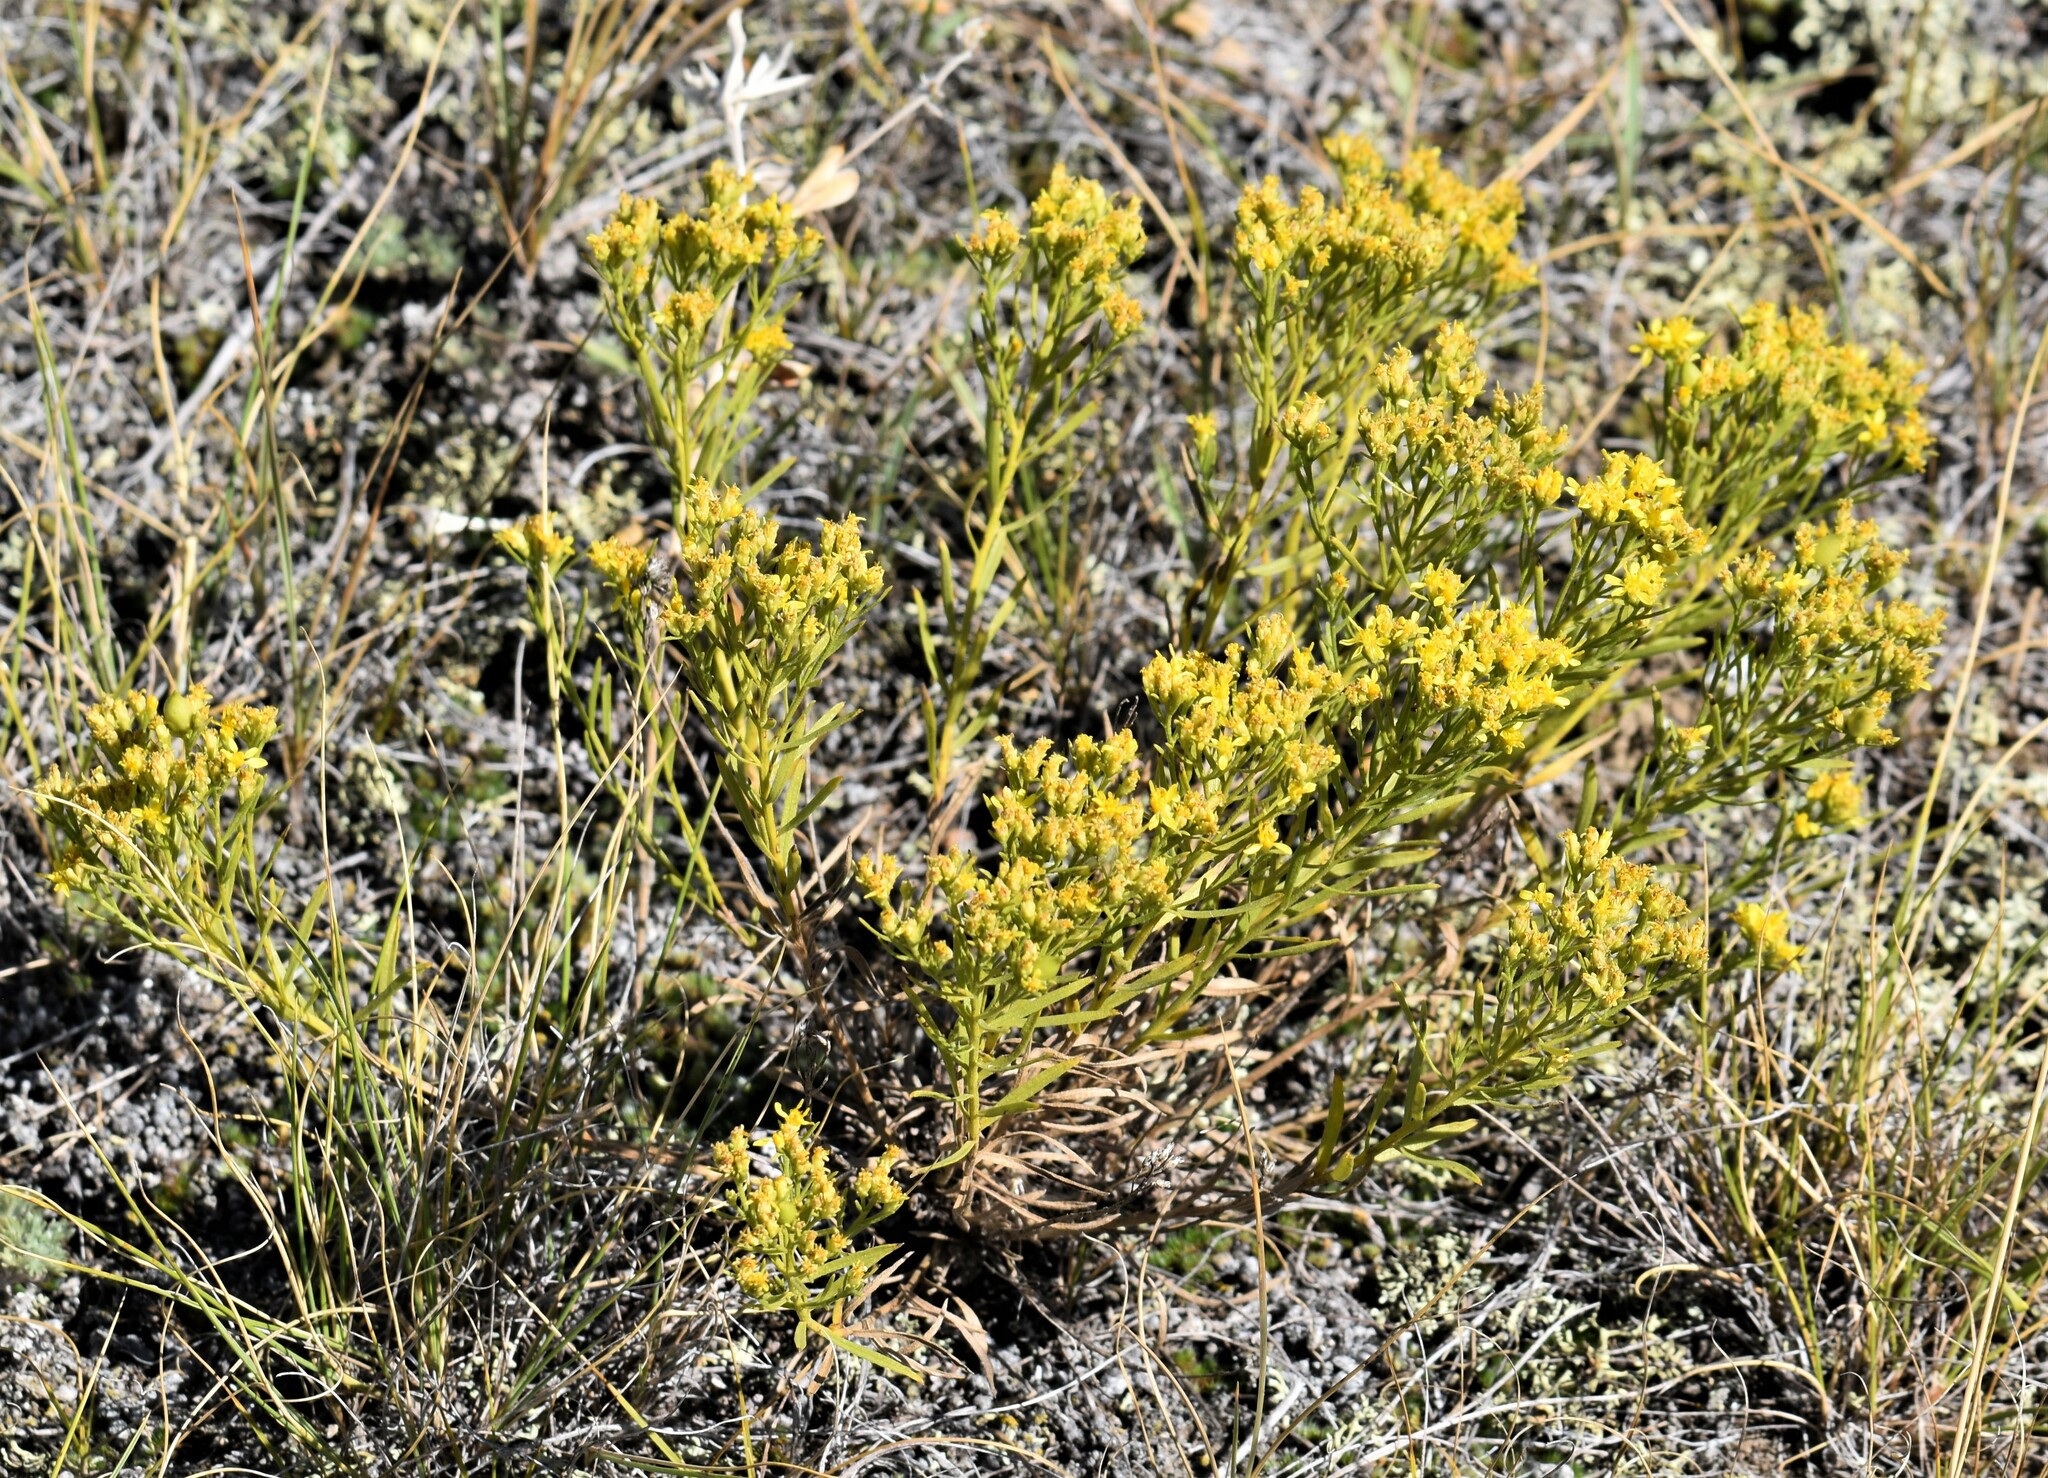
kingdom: Plantae
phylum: Tracheophyta
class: Magnoliopsida
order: Asterales
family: Asteraceae
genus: Gutierrezia
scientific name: Gutierrezia sarothrae
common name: Broom snakeweed
